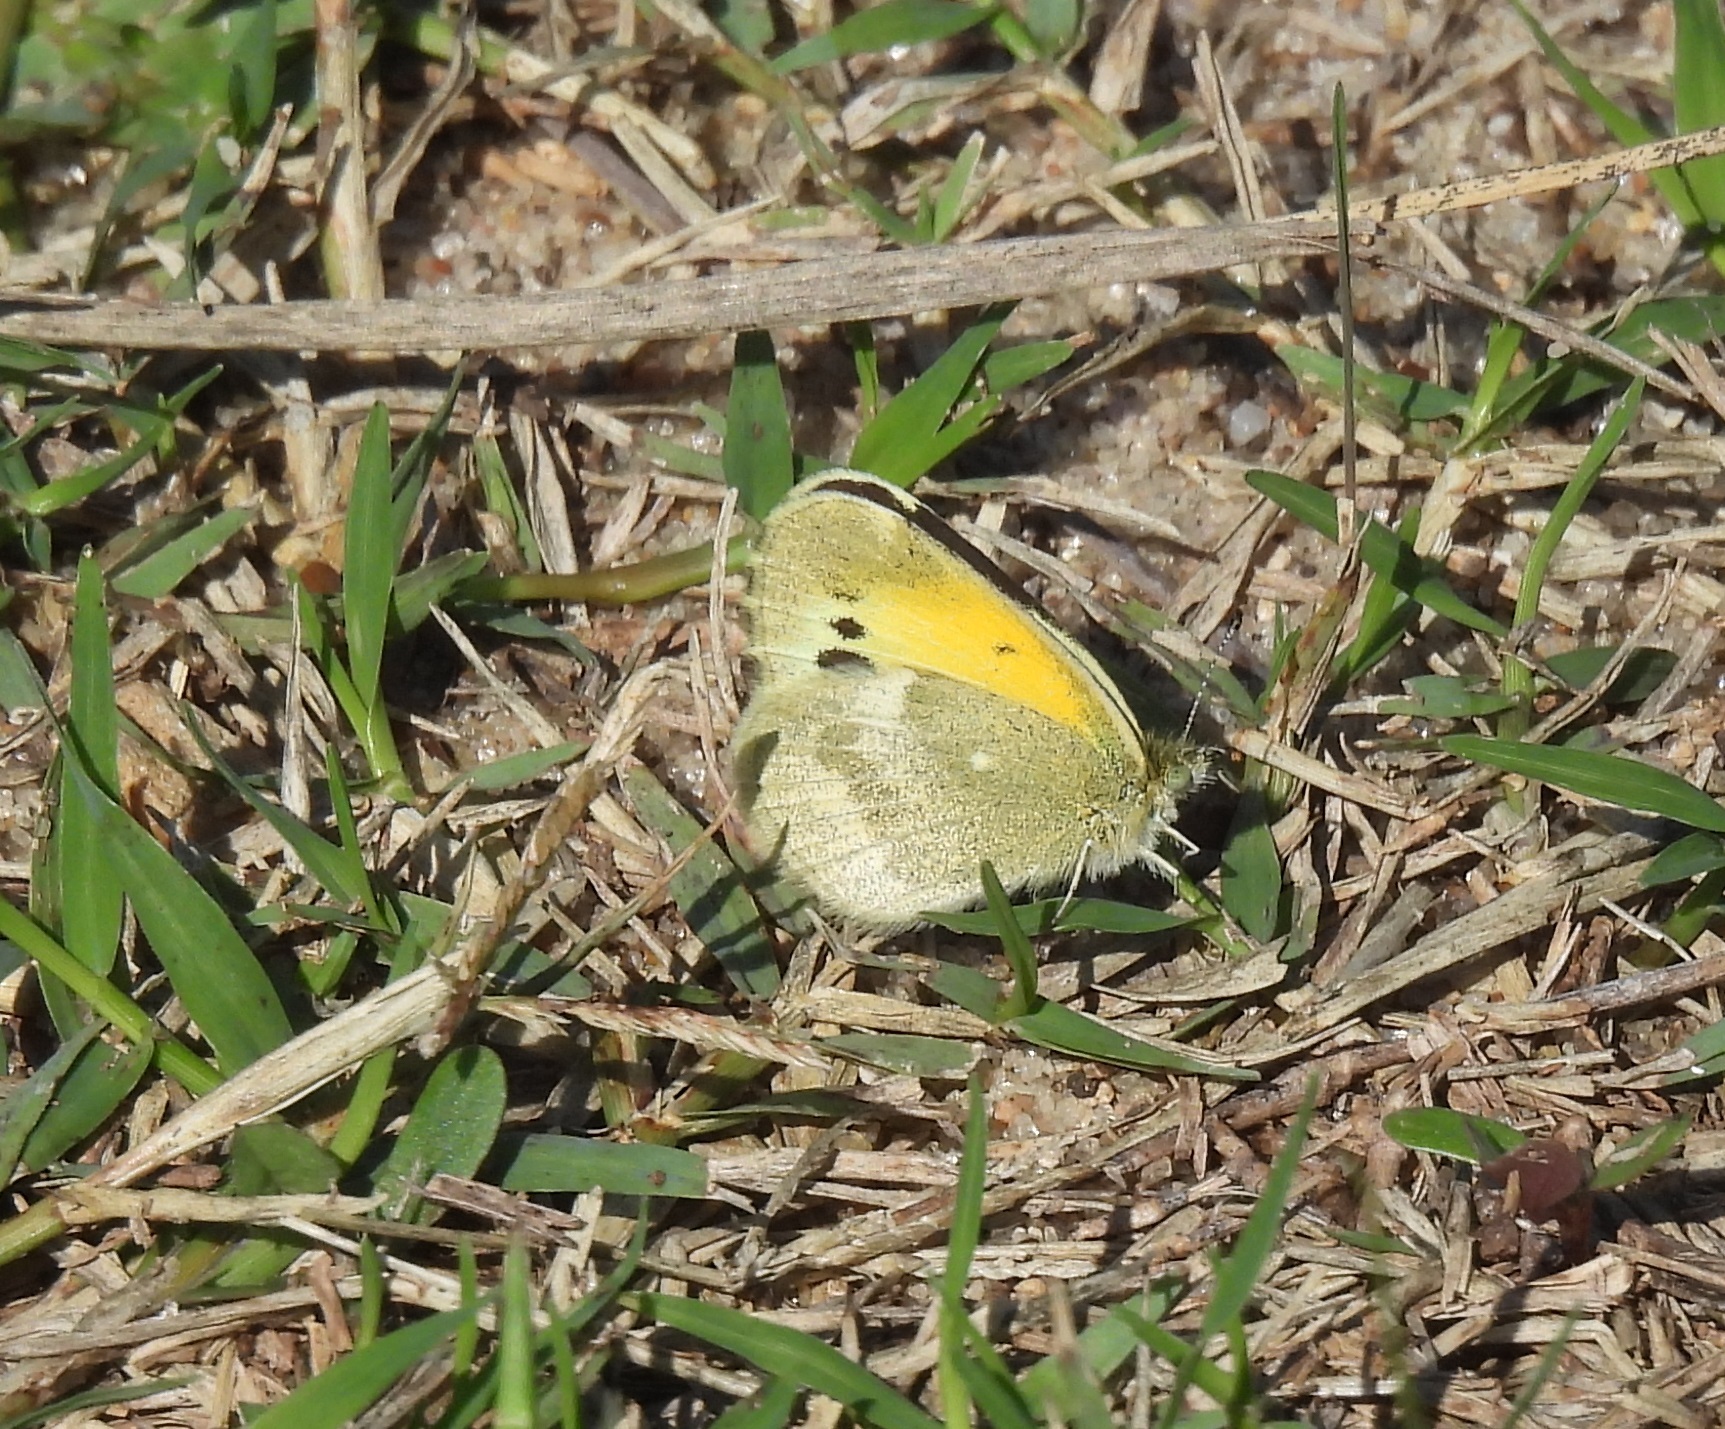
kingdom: Animalia
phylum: Arthropoda
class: Insecta
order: Lepidoptera
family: Pieridae
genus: Nathalis
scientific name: Nathalis iole
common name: Dainty sulphur
